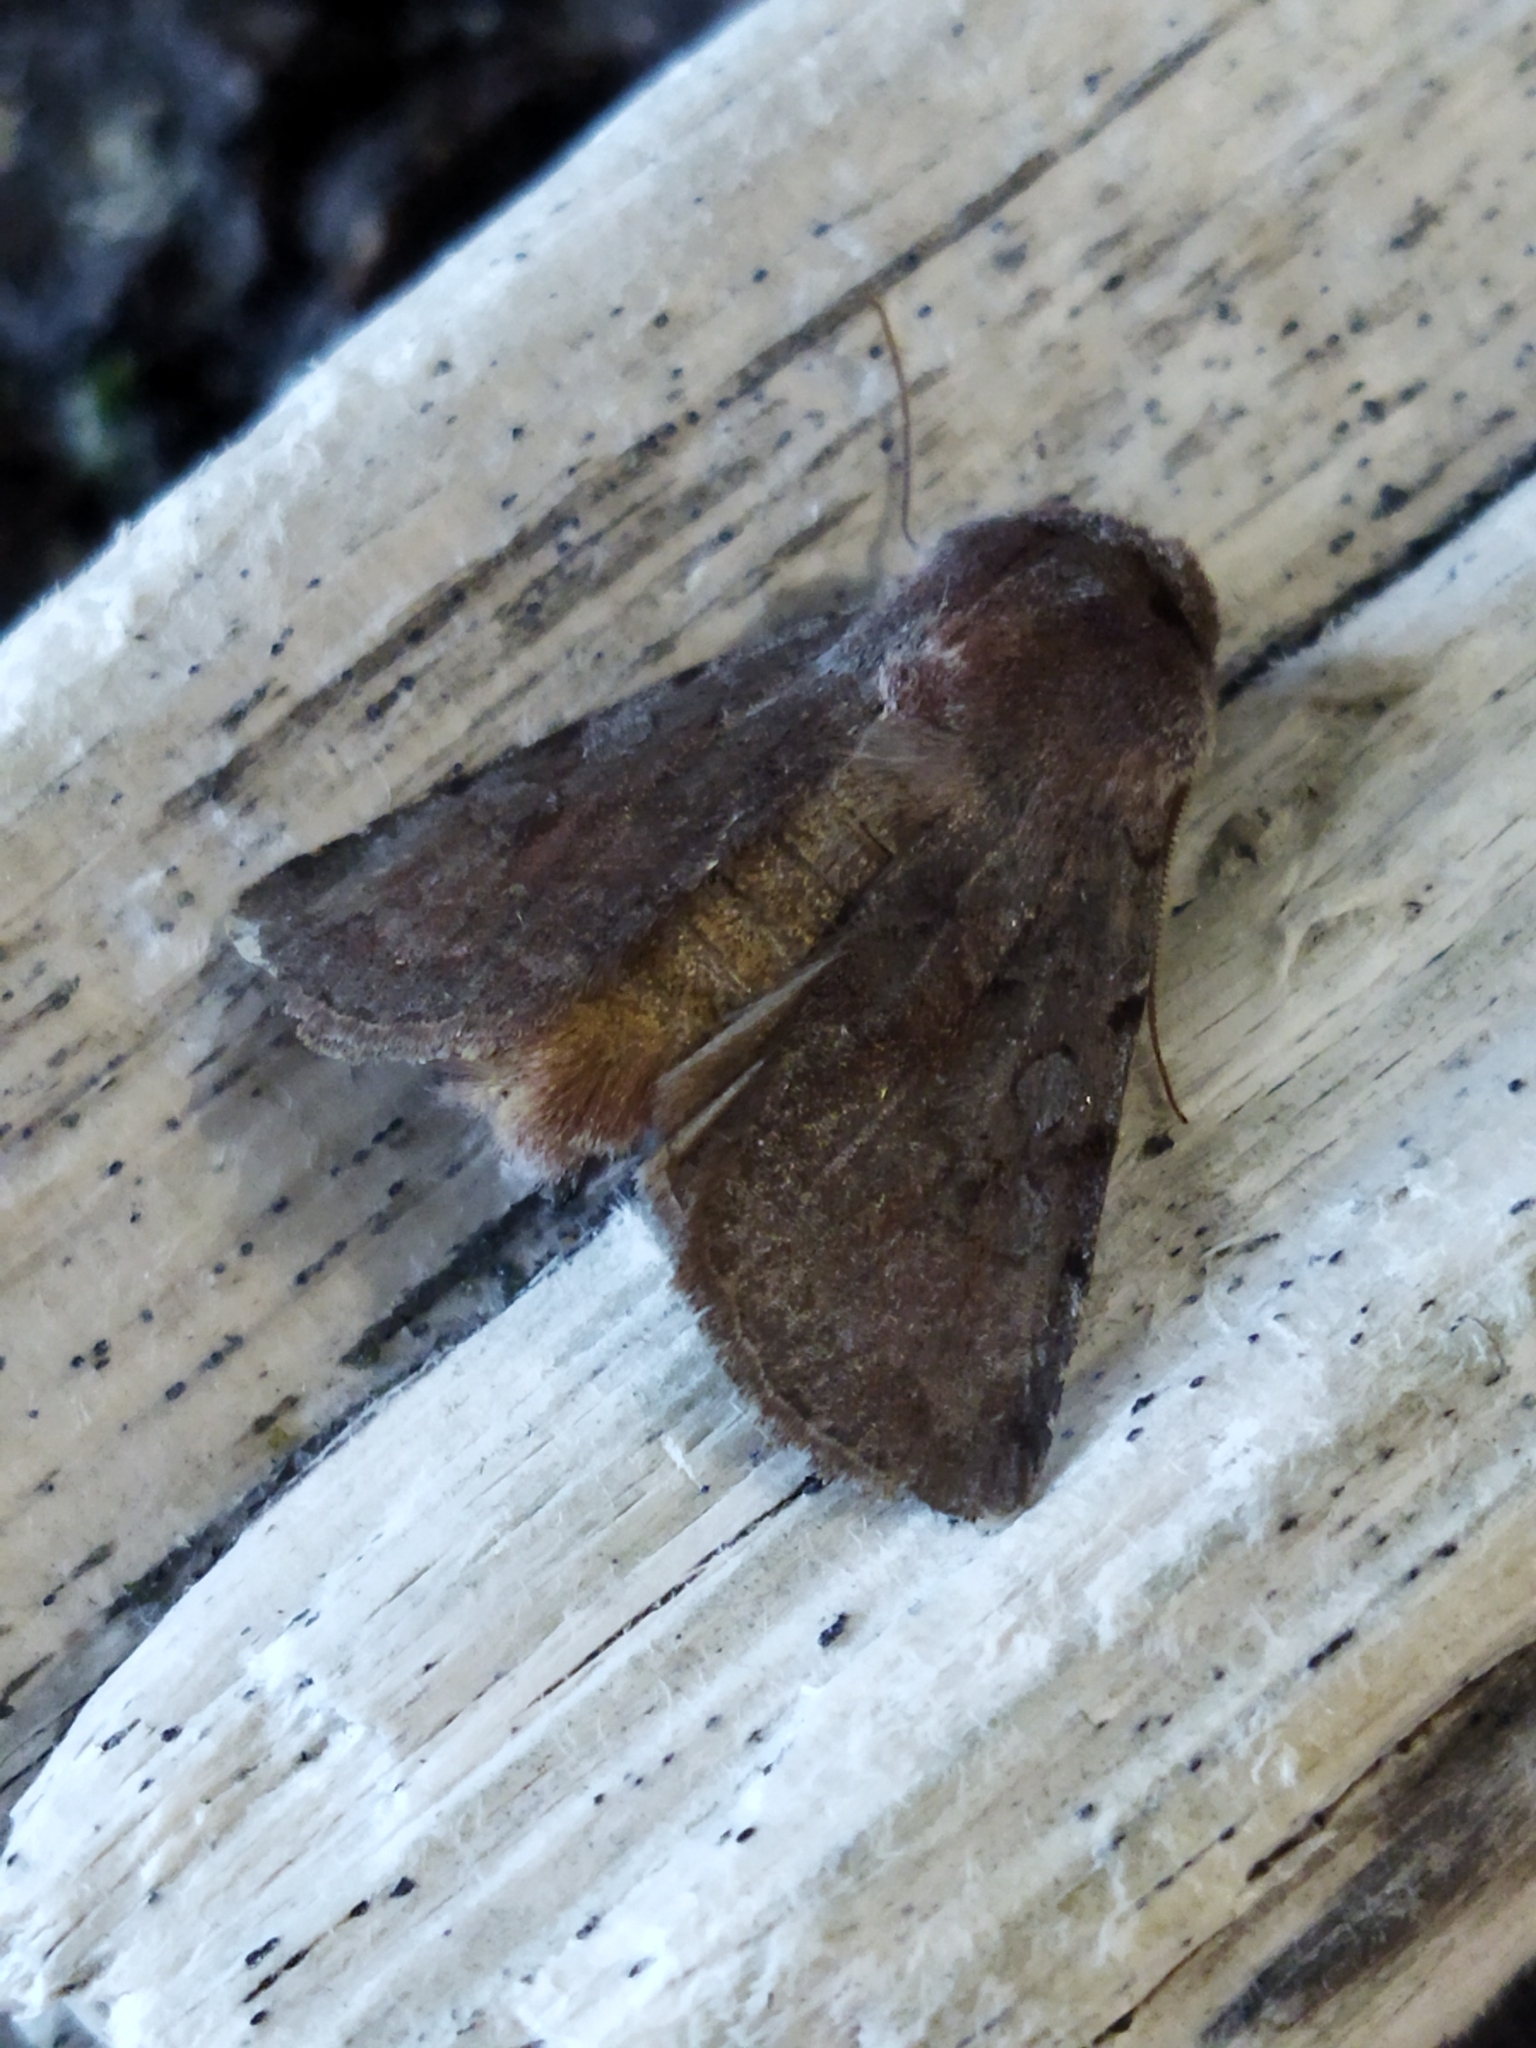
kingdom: Animalia
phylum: Arthropoda
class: Insecta
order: Lepidoptera
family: Noctuidae
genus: Cerastis
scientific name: Cerastis rubricosa
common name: Red chestnut
